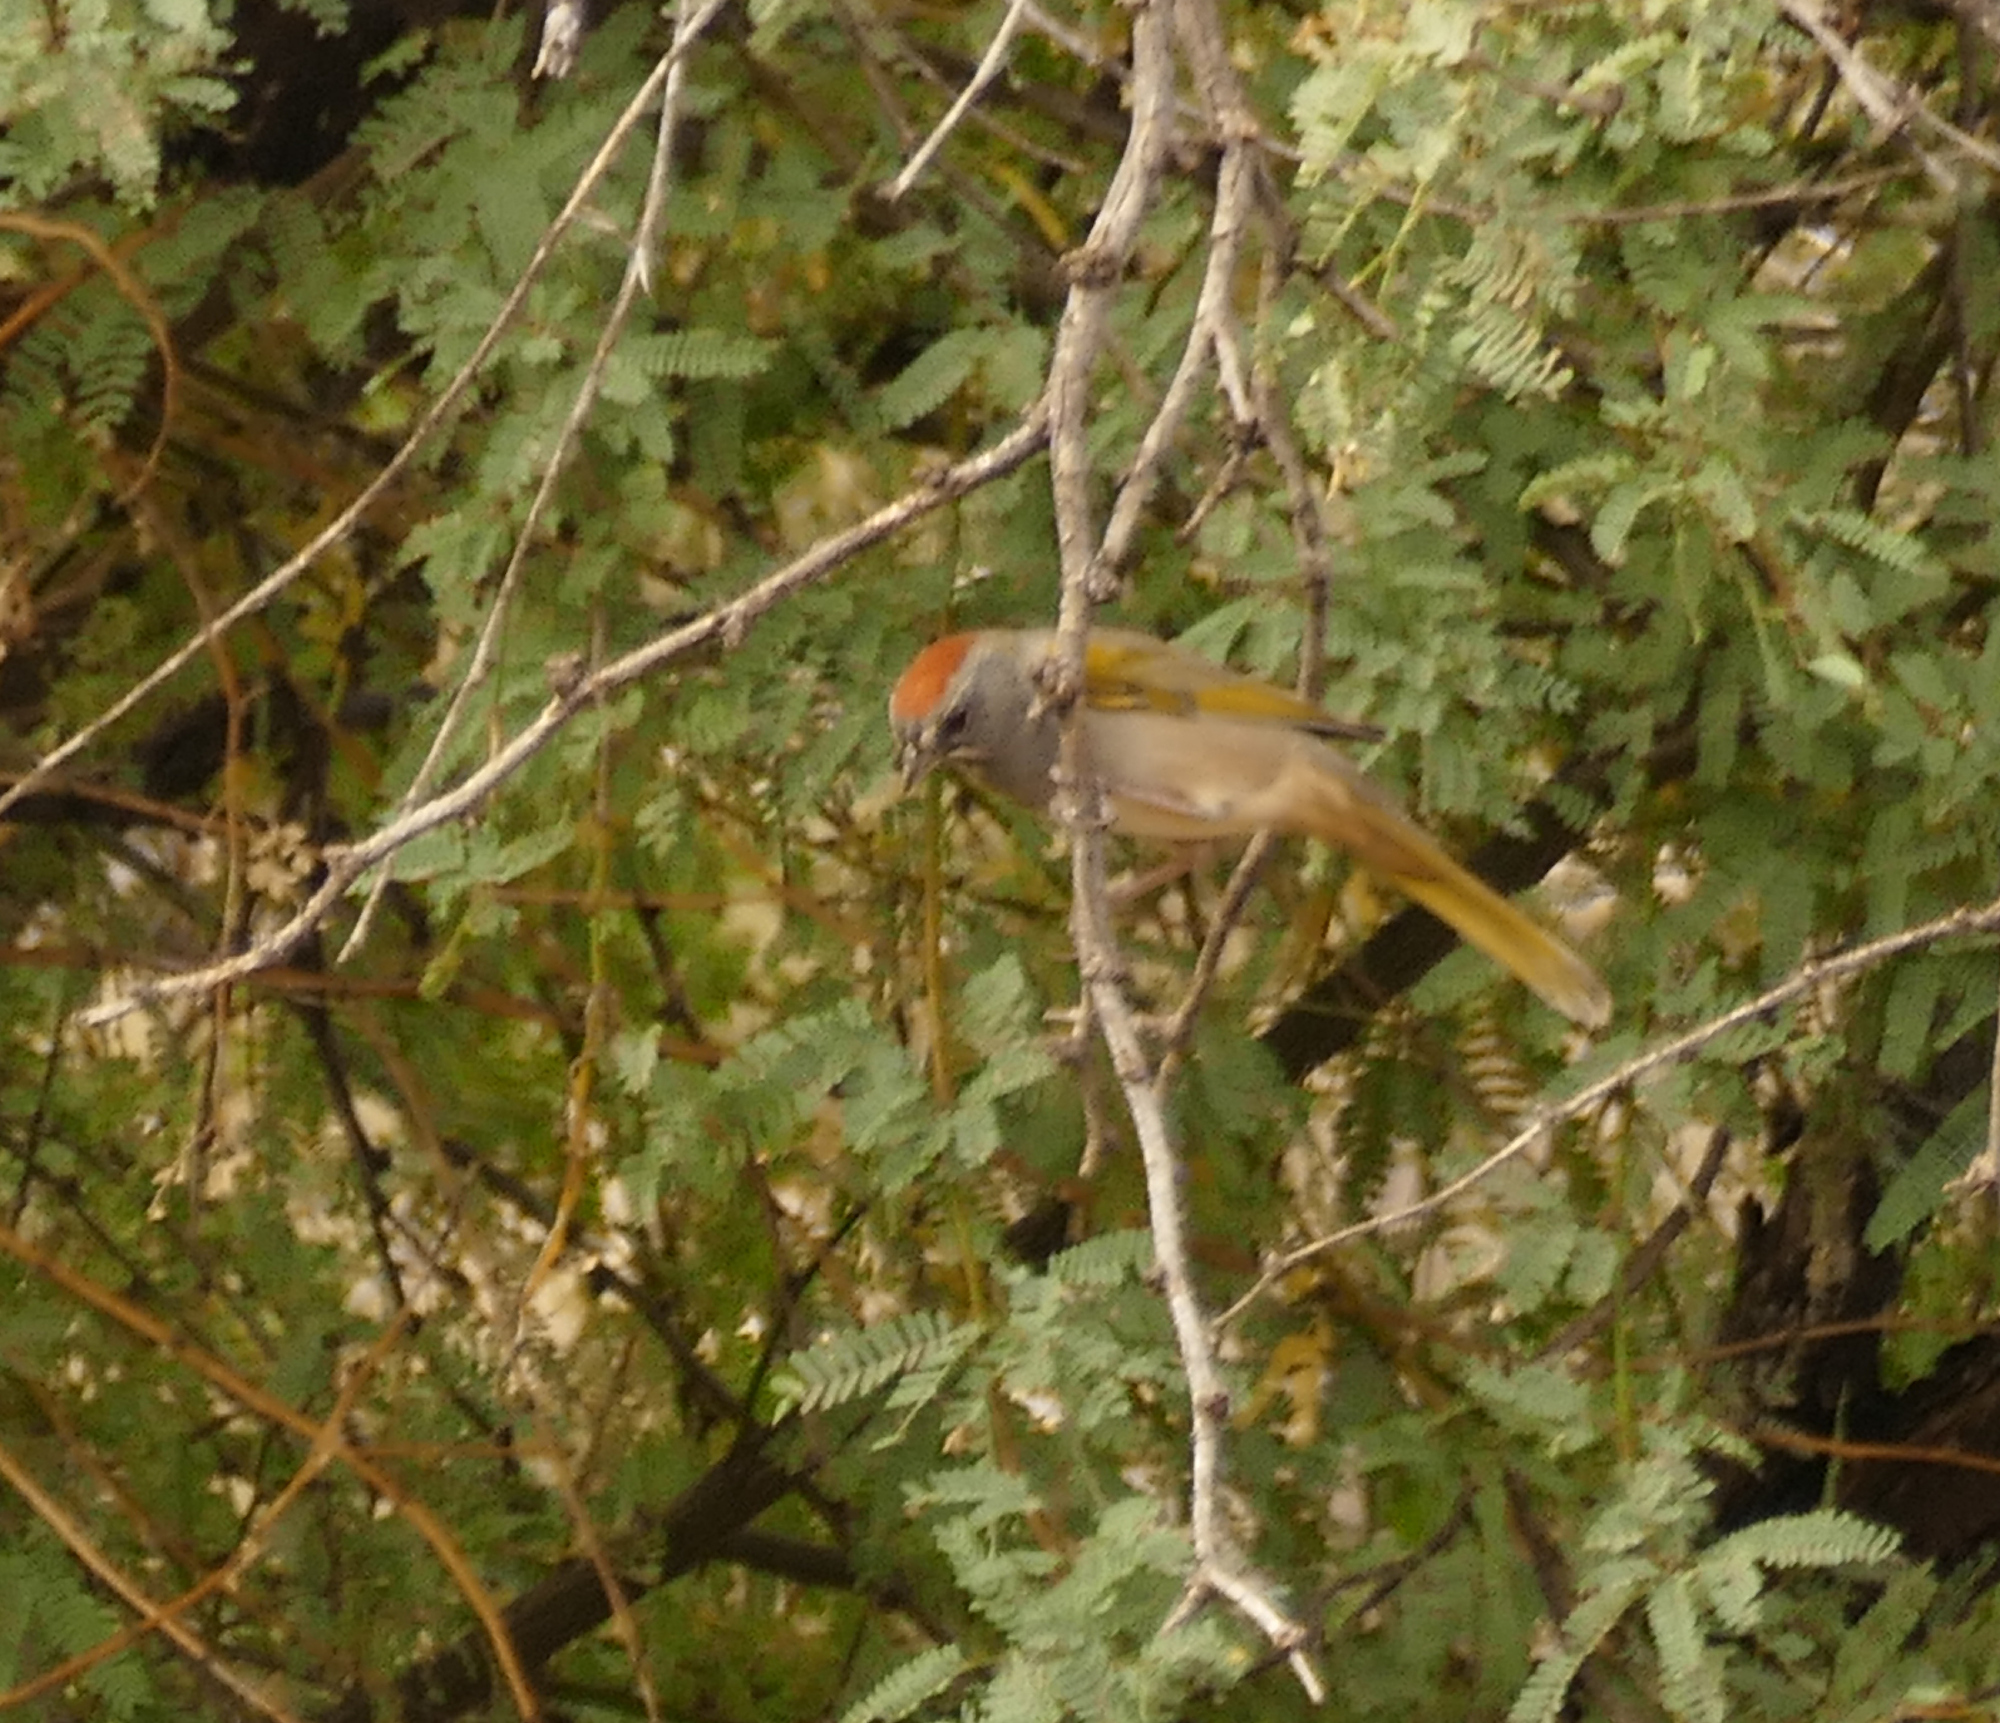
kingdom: Animalia
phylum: Chordata
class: Aves
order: Passeriformes
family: Passerellidae
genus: Pipilo
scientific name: Pipilo chlorurus
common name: Green-tailed towhee
